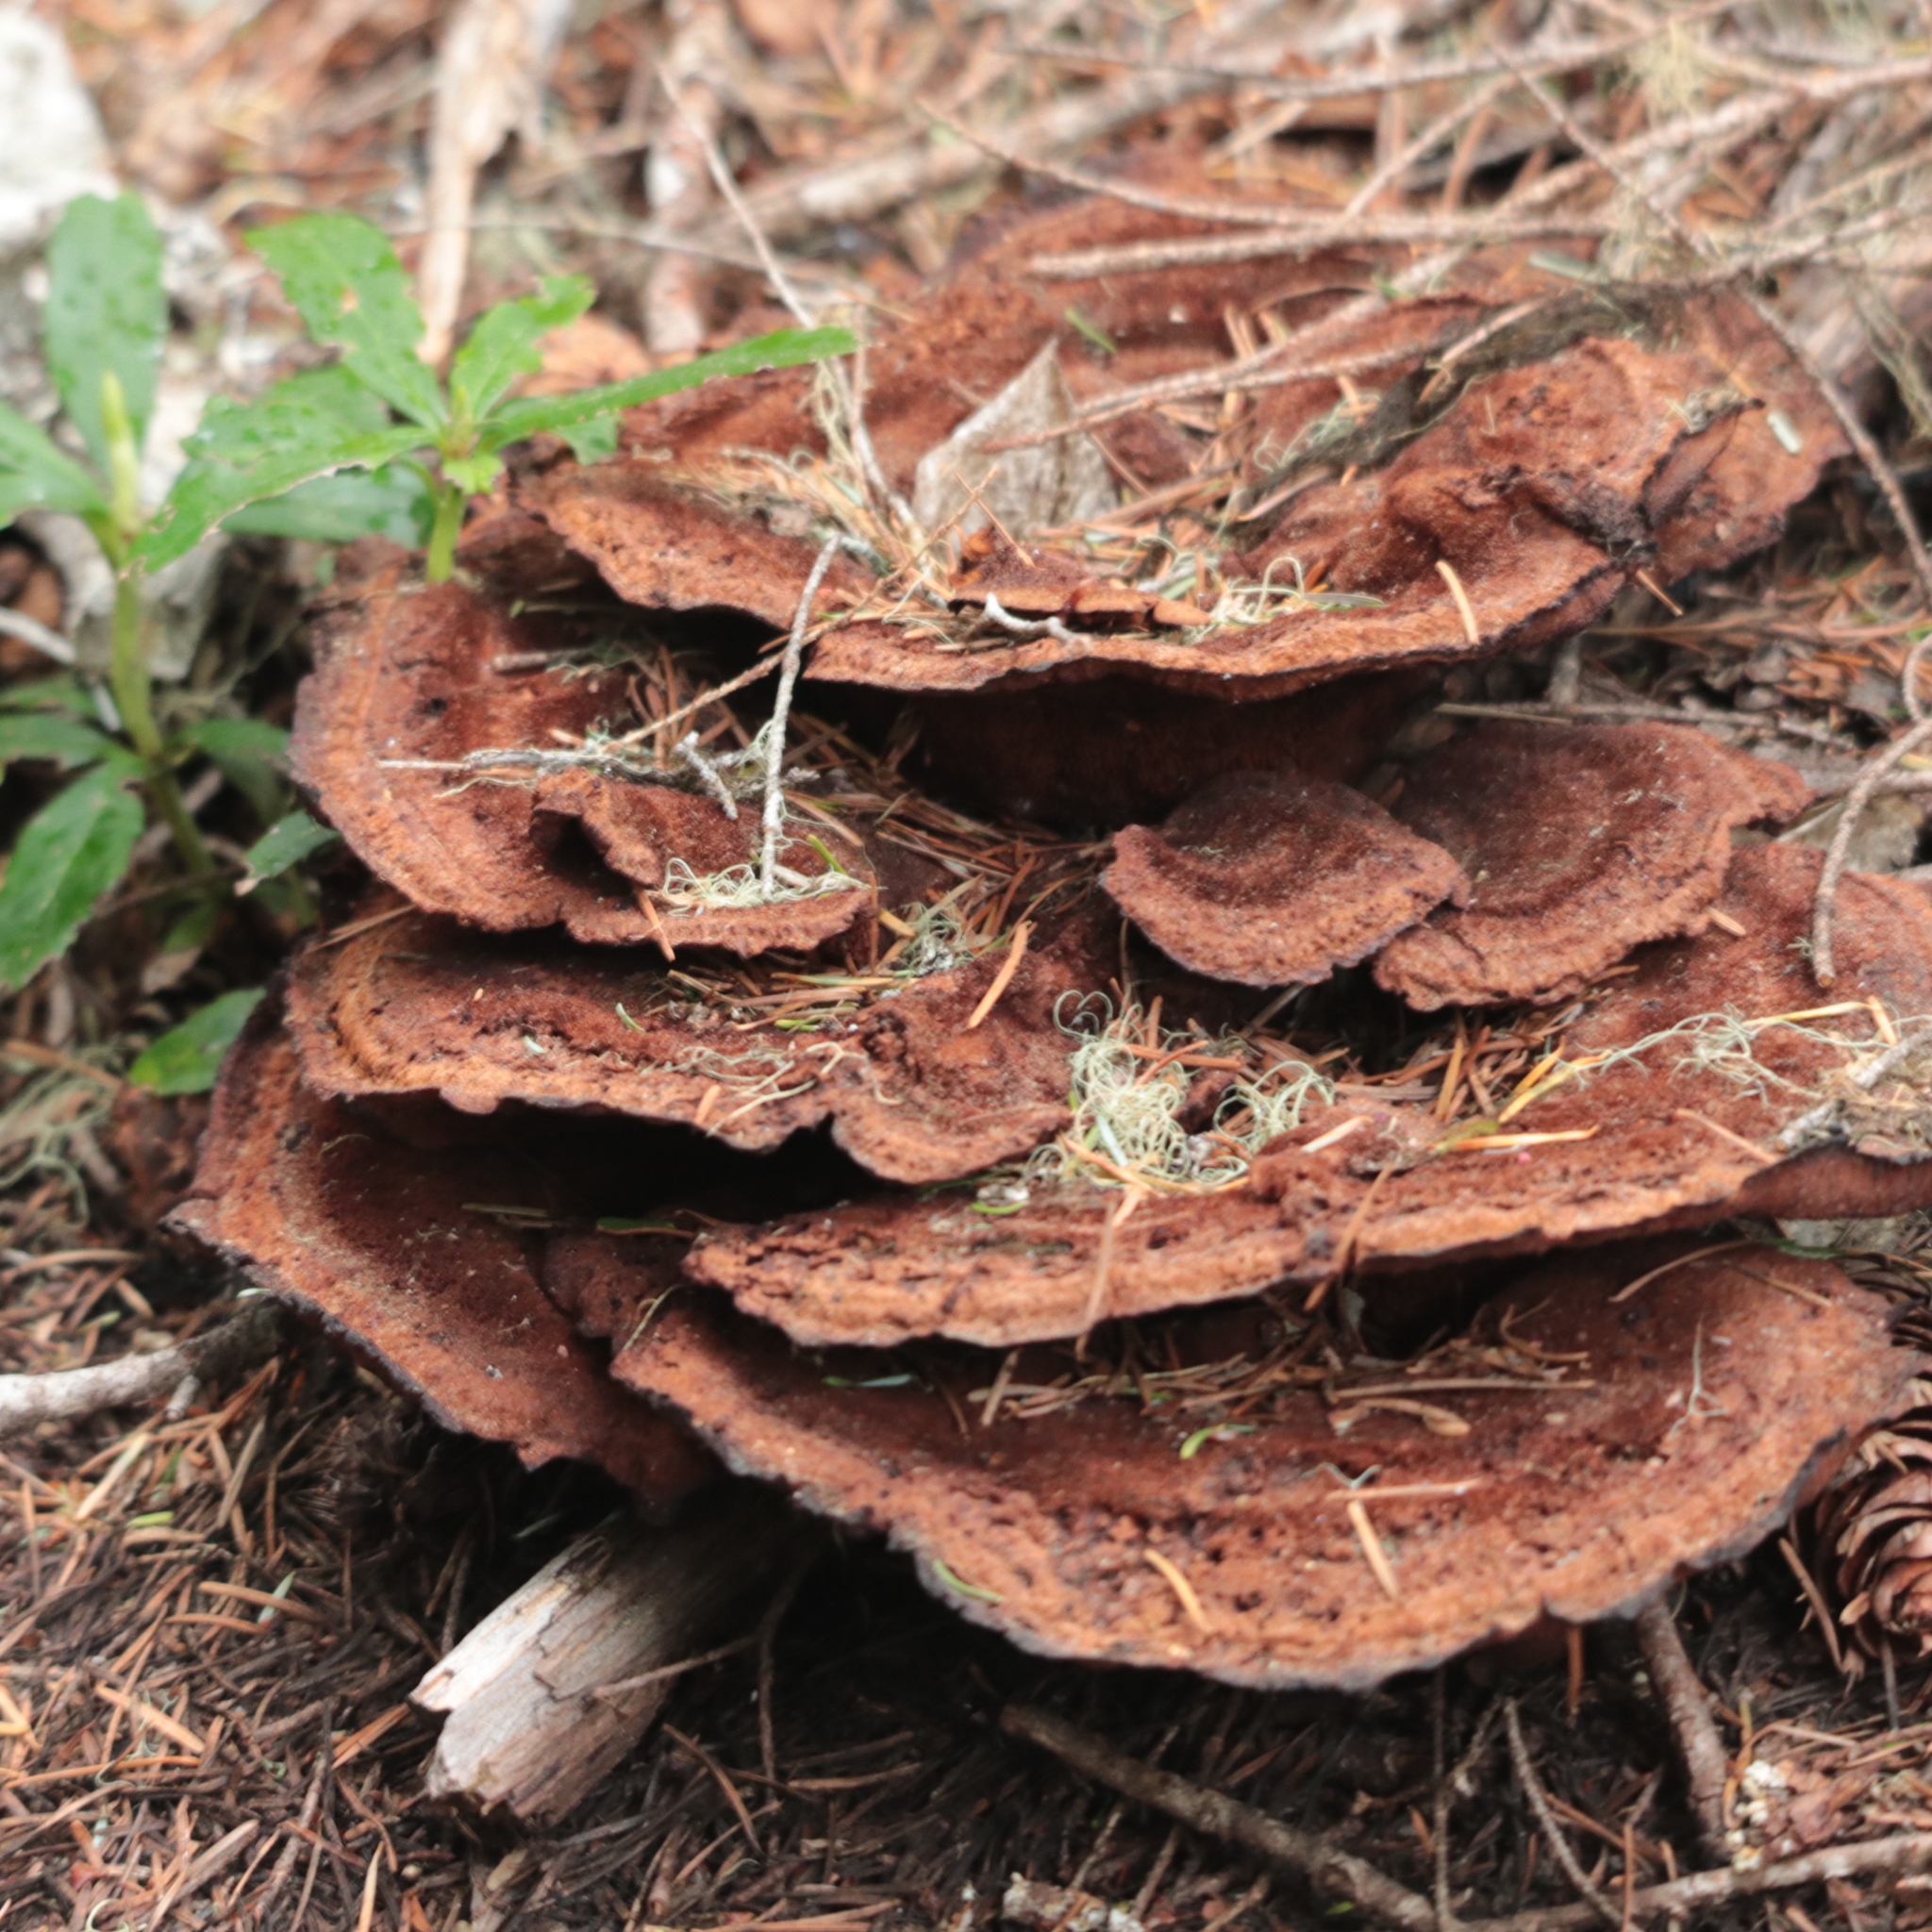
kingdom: Fungi
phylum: Basidiomycota
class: Agaricomycetes
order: Polyporales
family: Laetiporaceae
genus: Phaeolus
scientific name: Phaeolus schweinitzii
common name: Dyer's mazegill
